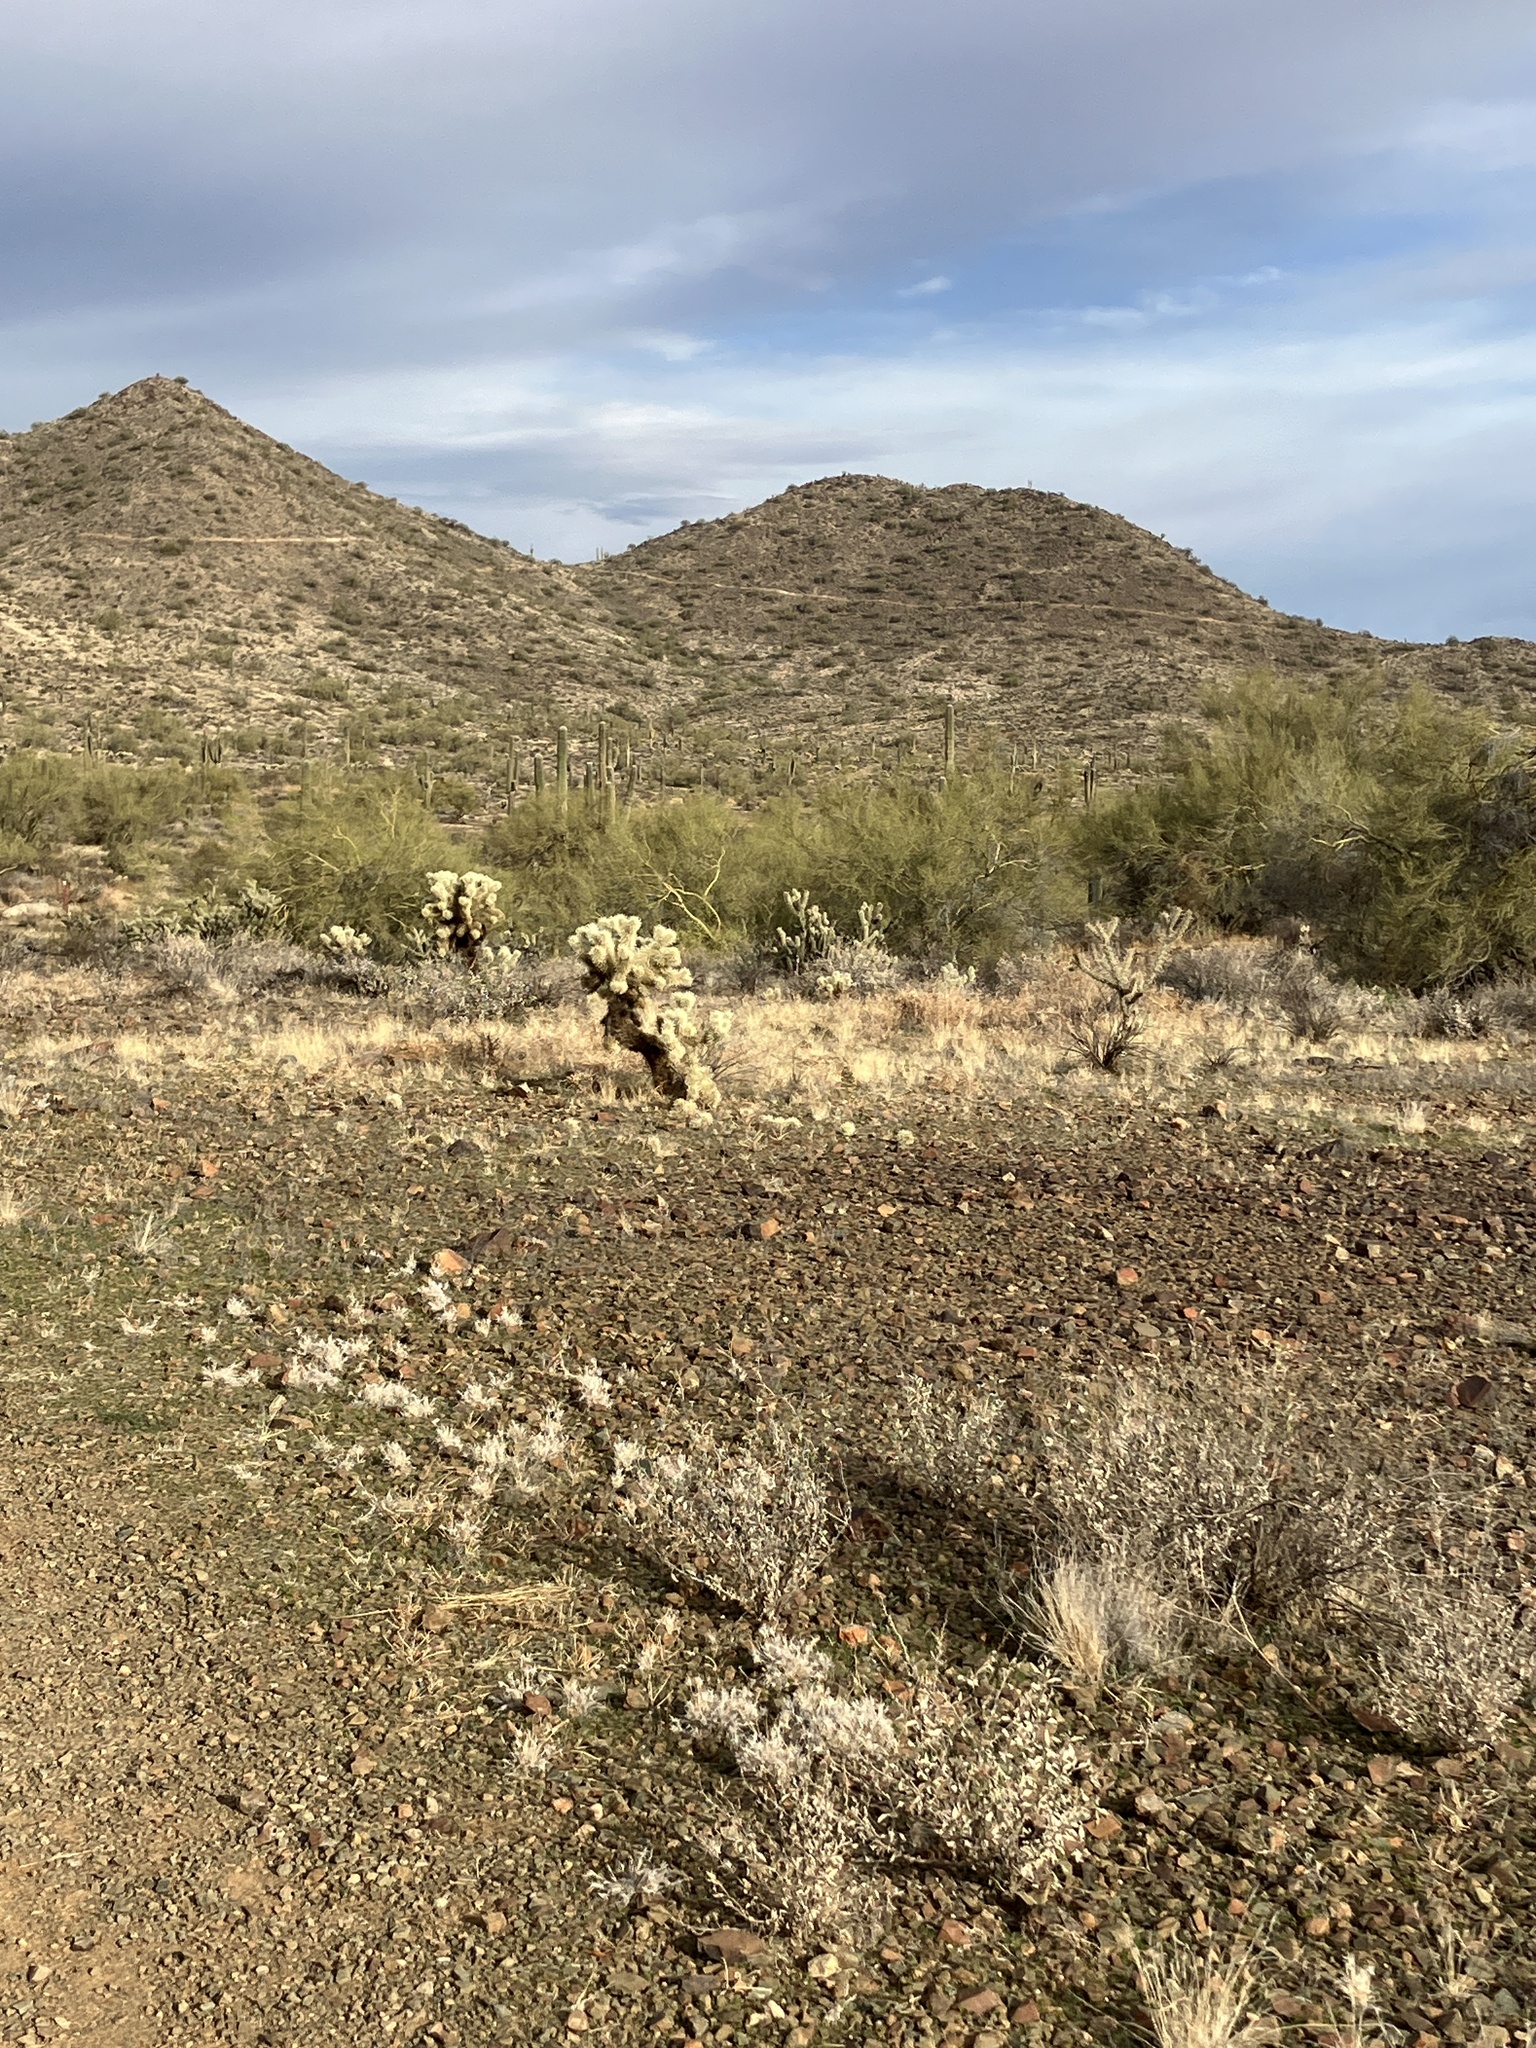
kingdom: Plantae
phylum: Tracheophyta
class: Liliopsida
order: Poales
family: Poaceae
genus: Dasyochloa
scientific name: Dasyochloa pulchella
